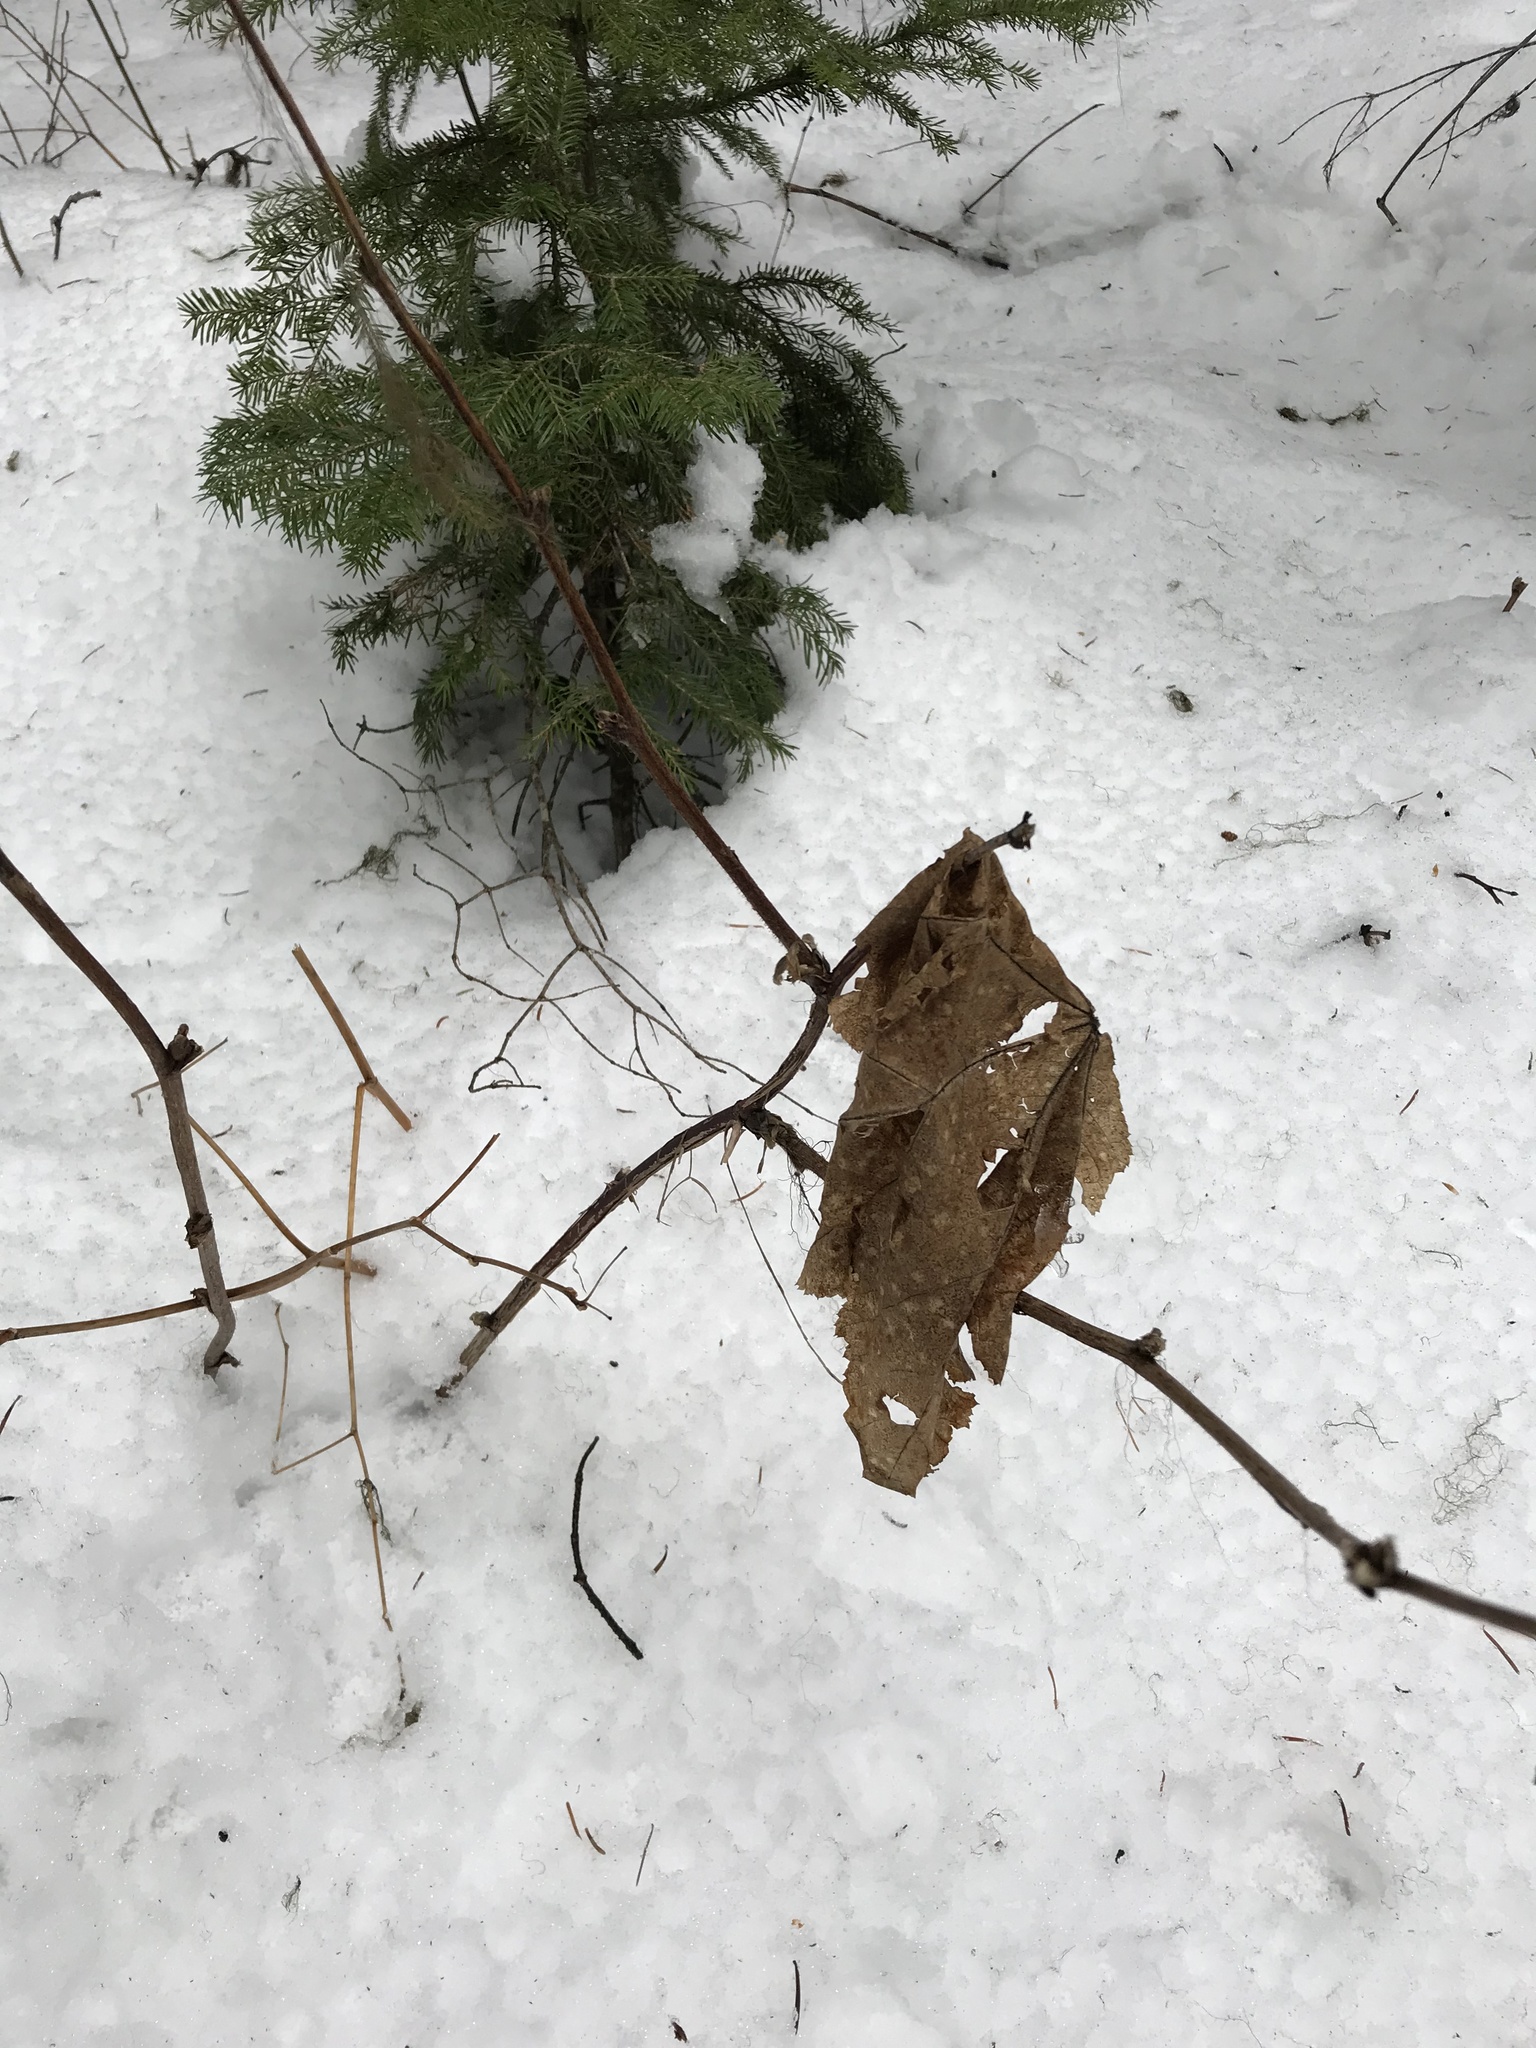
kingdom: Plantae
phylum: Tracheophyta
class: Magnoliopsida
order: Rosales
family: Rosaceae
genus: Rubus
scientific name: Rubus parviflorus
